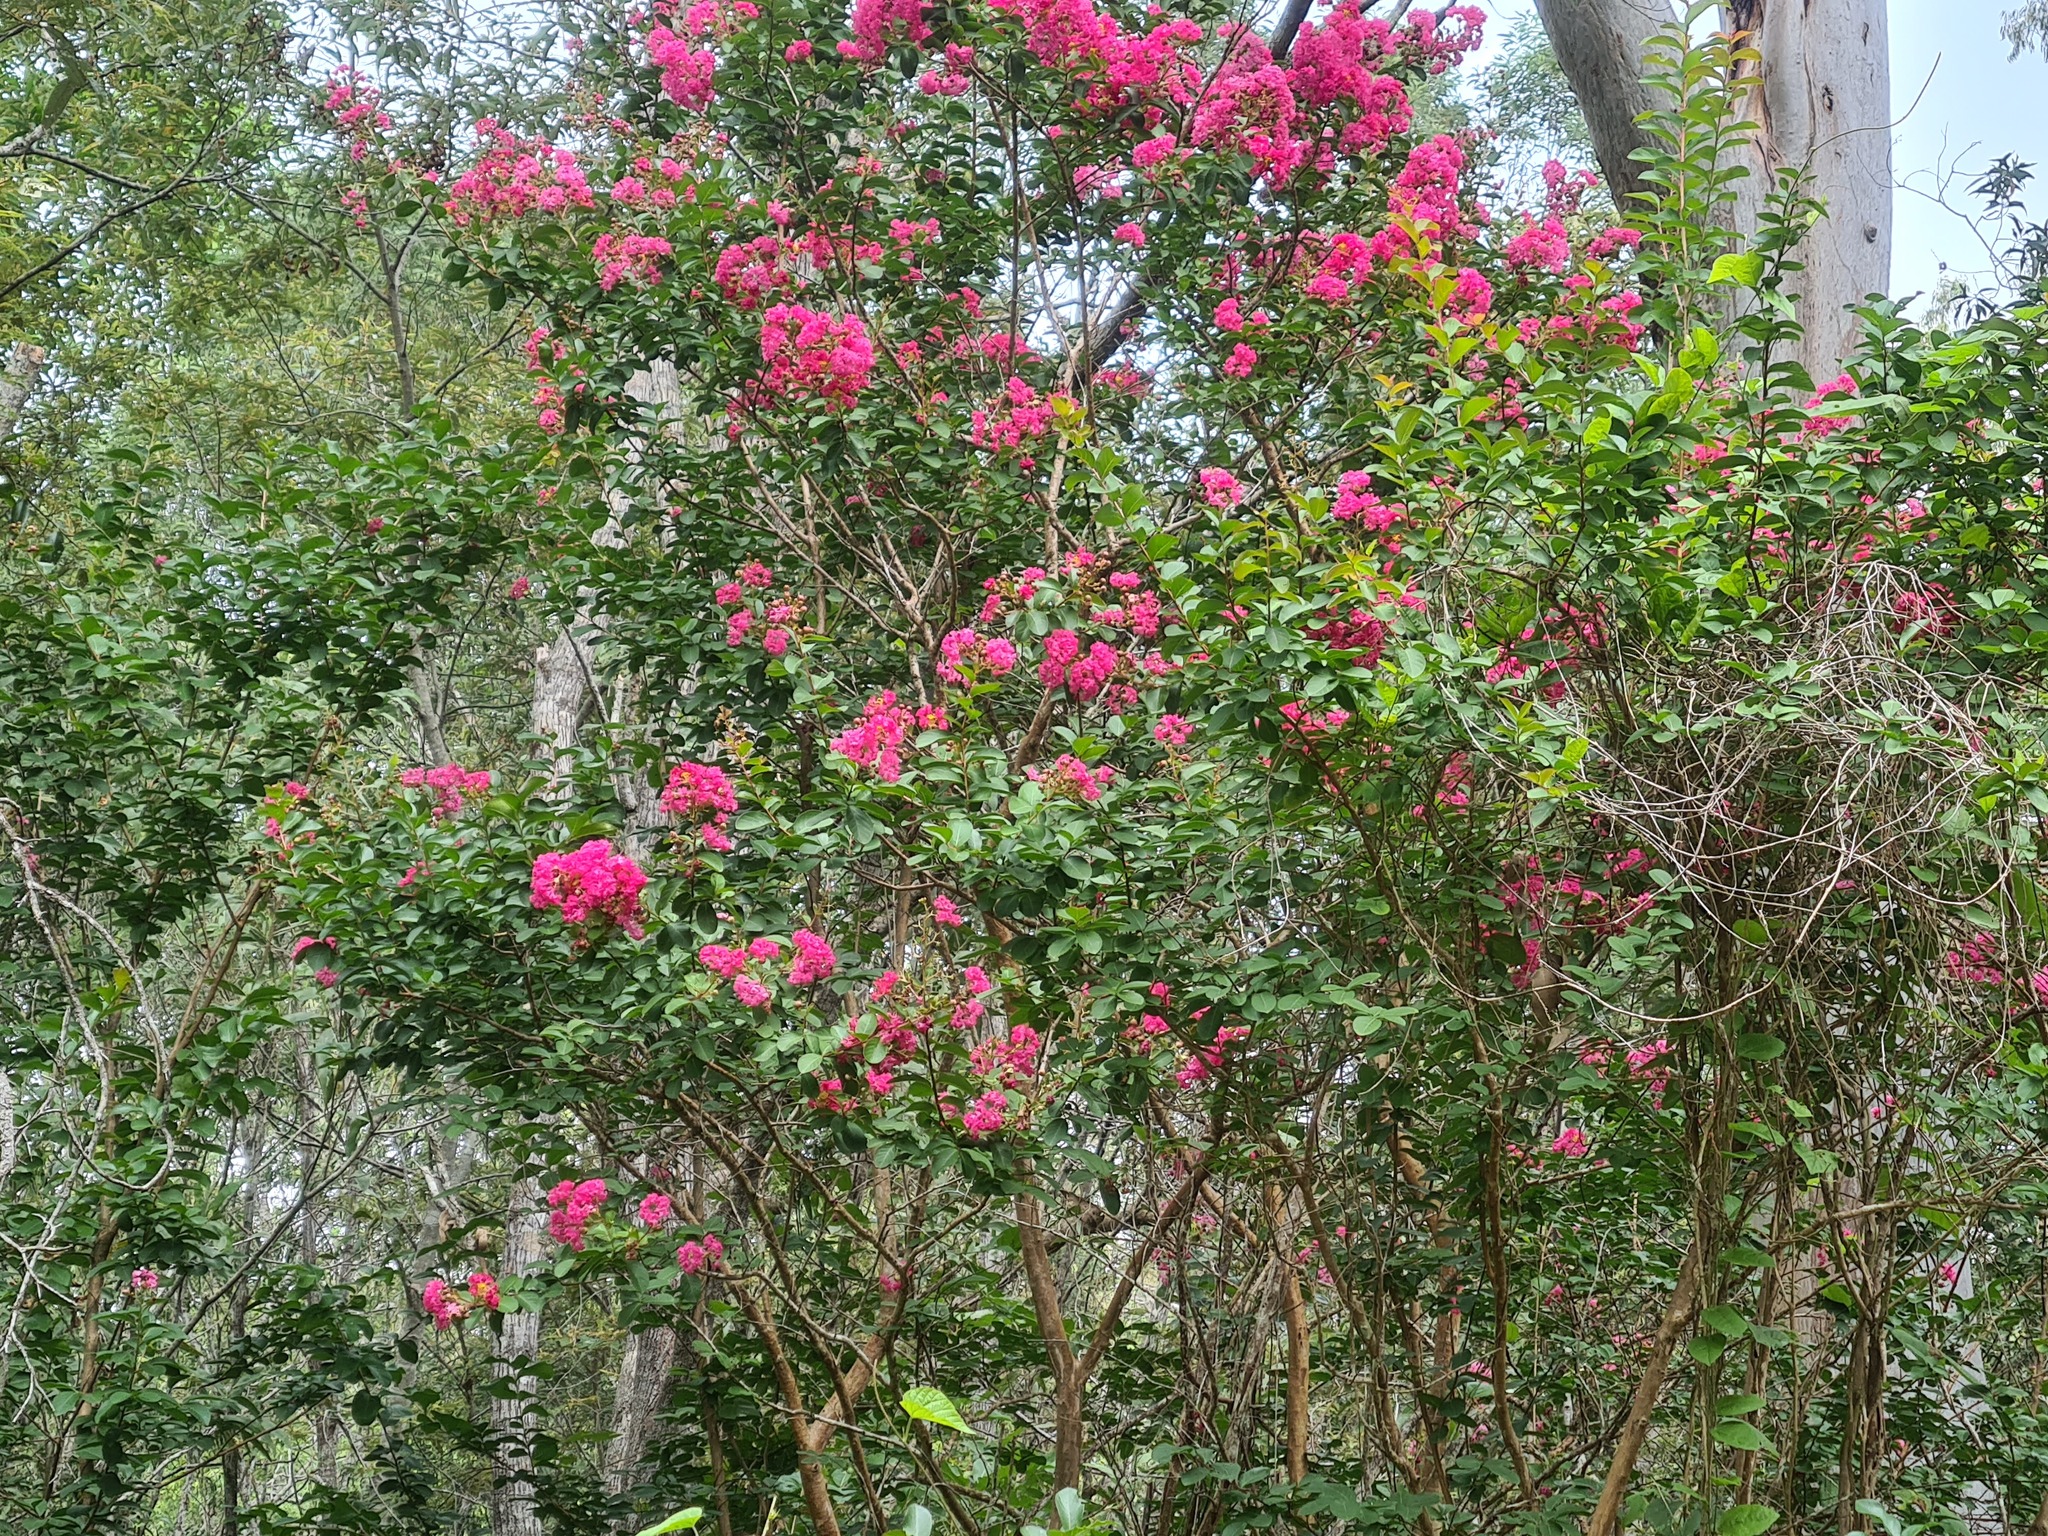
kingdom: Plantae
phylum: Tracheophyta
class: Magnoliopsida
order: Myrtales
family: Lythraceae
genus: Lagerstroemia
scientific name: Lagerstroemia indica
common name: Crape-myrtle
